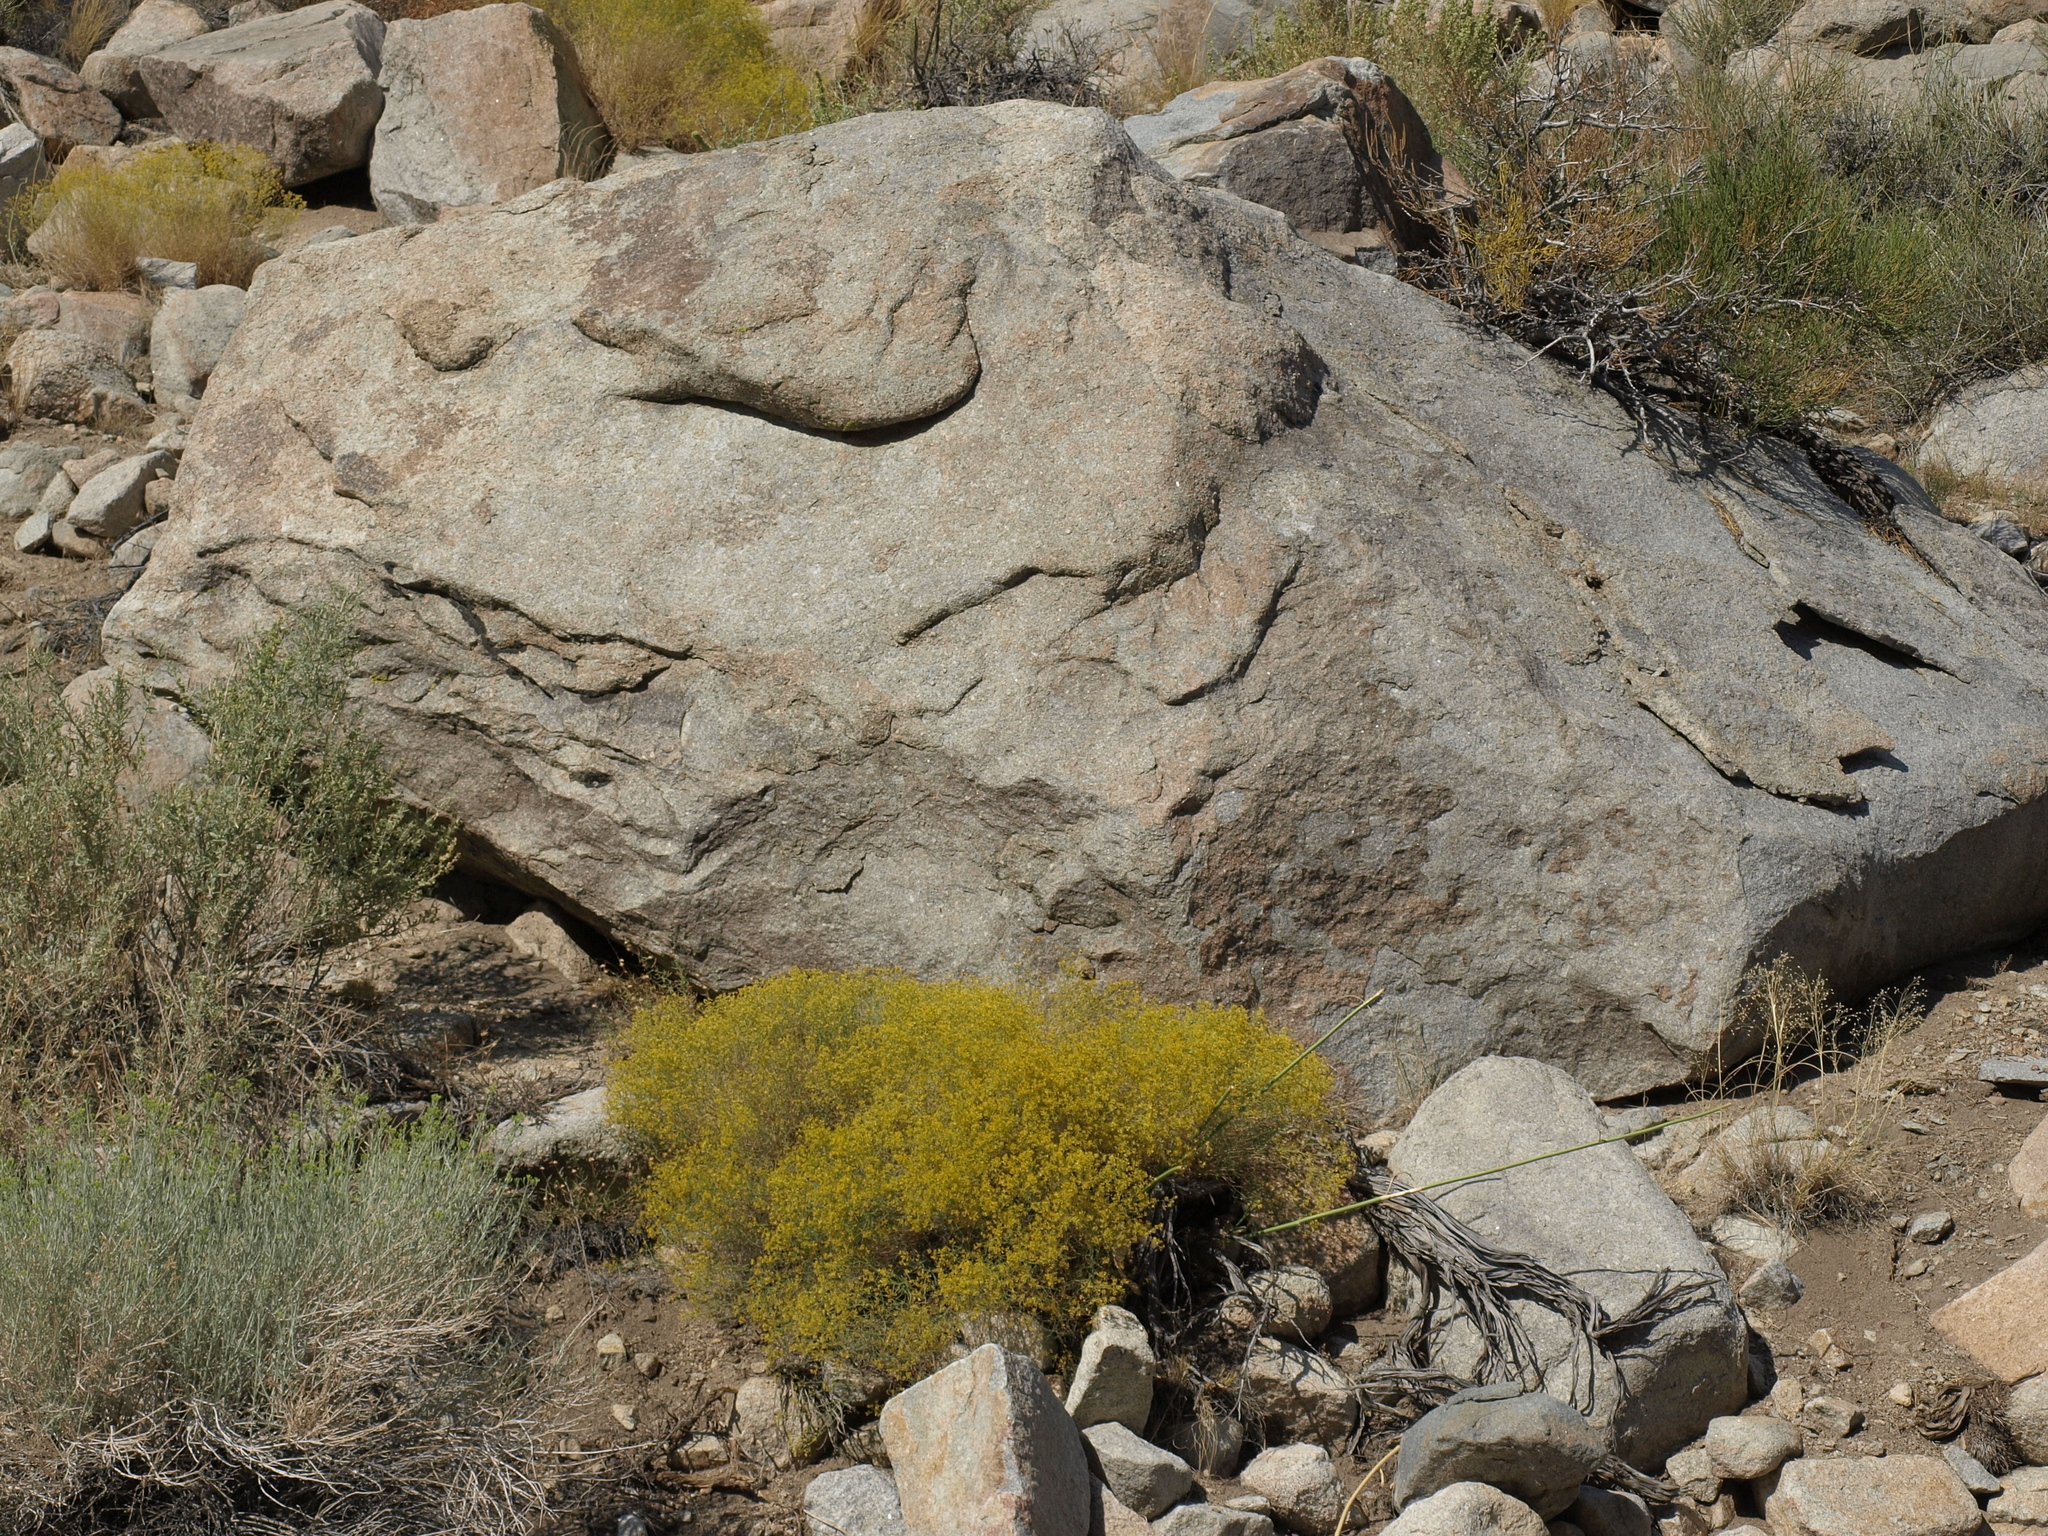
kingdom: Plantae
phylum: Tracheophyta
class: Magnoliopsida
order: Asterales
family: Asteraceae
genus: Gutierrezia
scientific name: Gutierrezia microcephala
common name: Thread snakeweed
